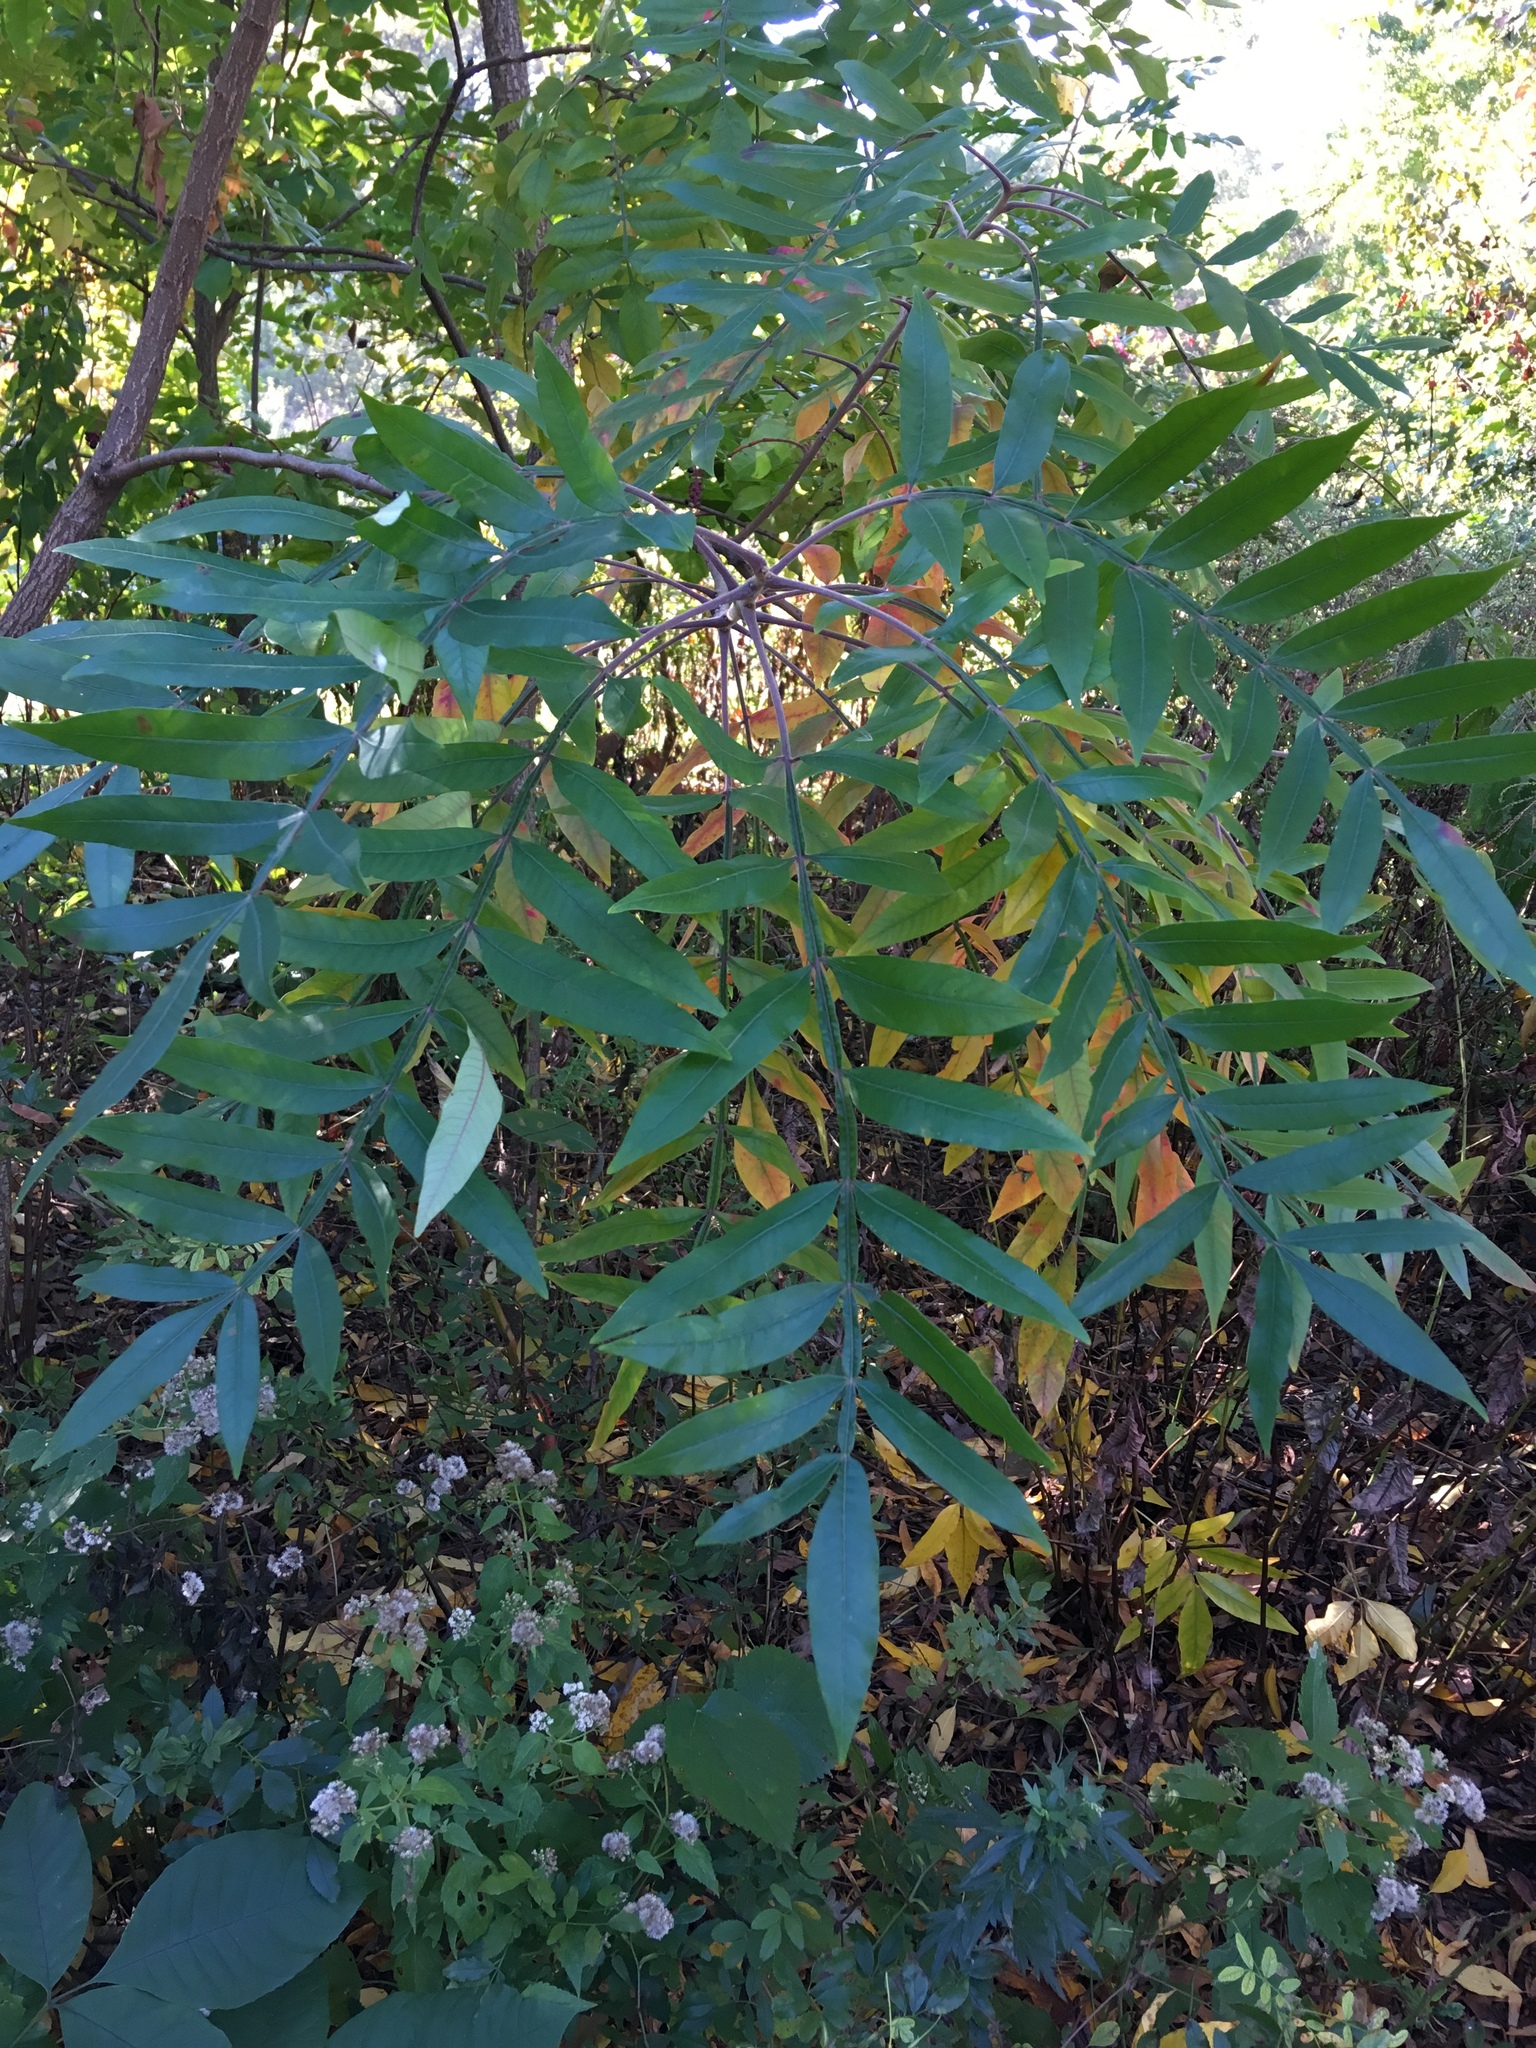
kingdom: Plantae
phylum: Tracheophyta
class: Magnoliopsida
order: Sapindales
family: Anacardiaceae
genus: Rhus
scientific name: Rhus copallina
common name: Shining sumac
